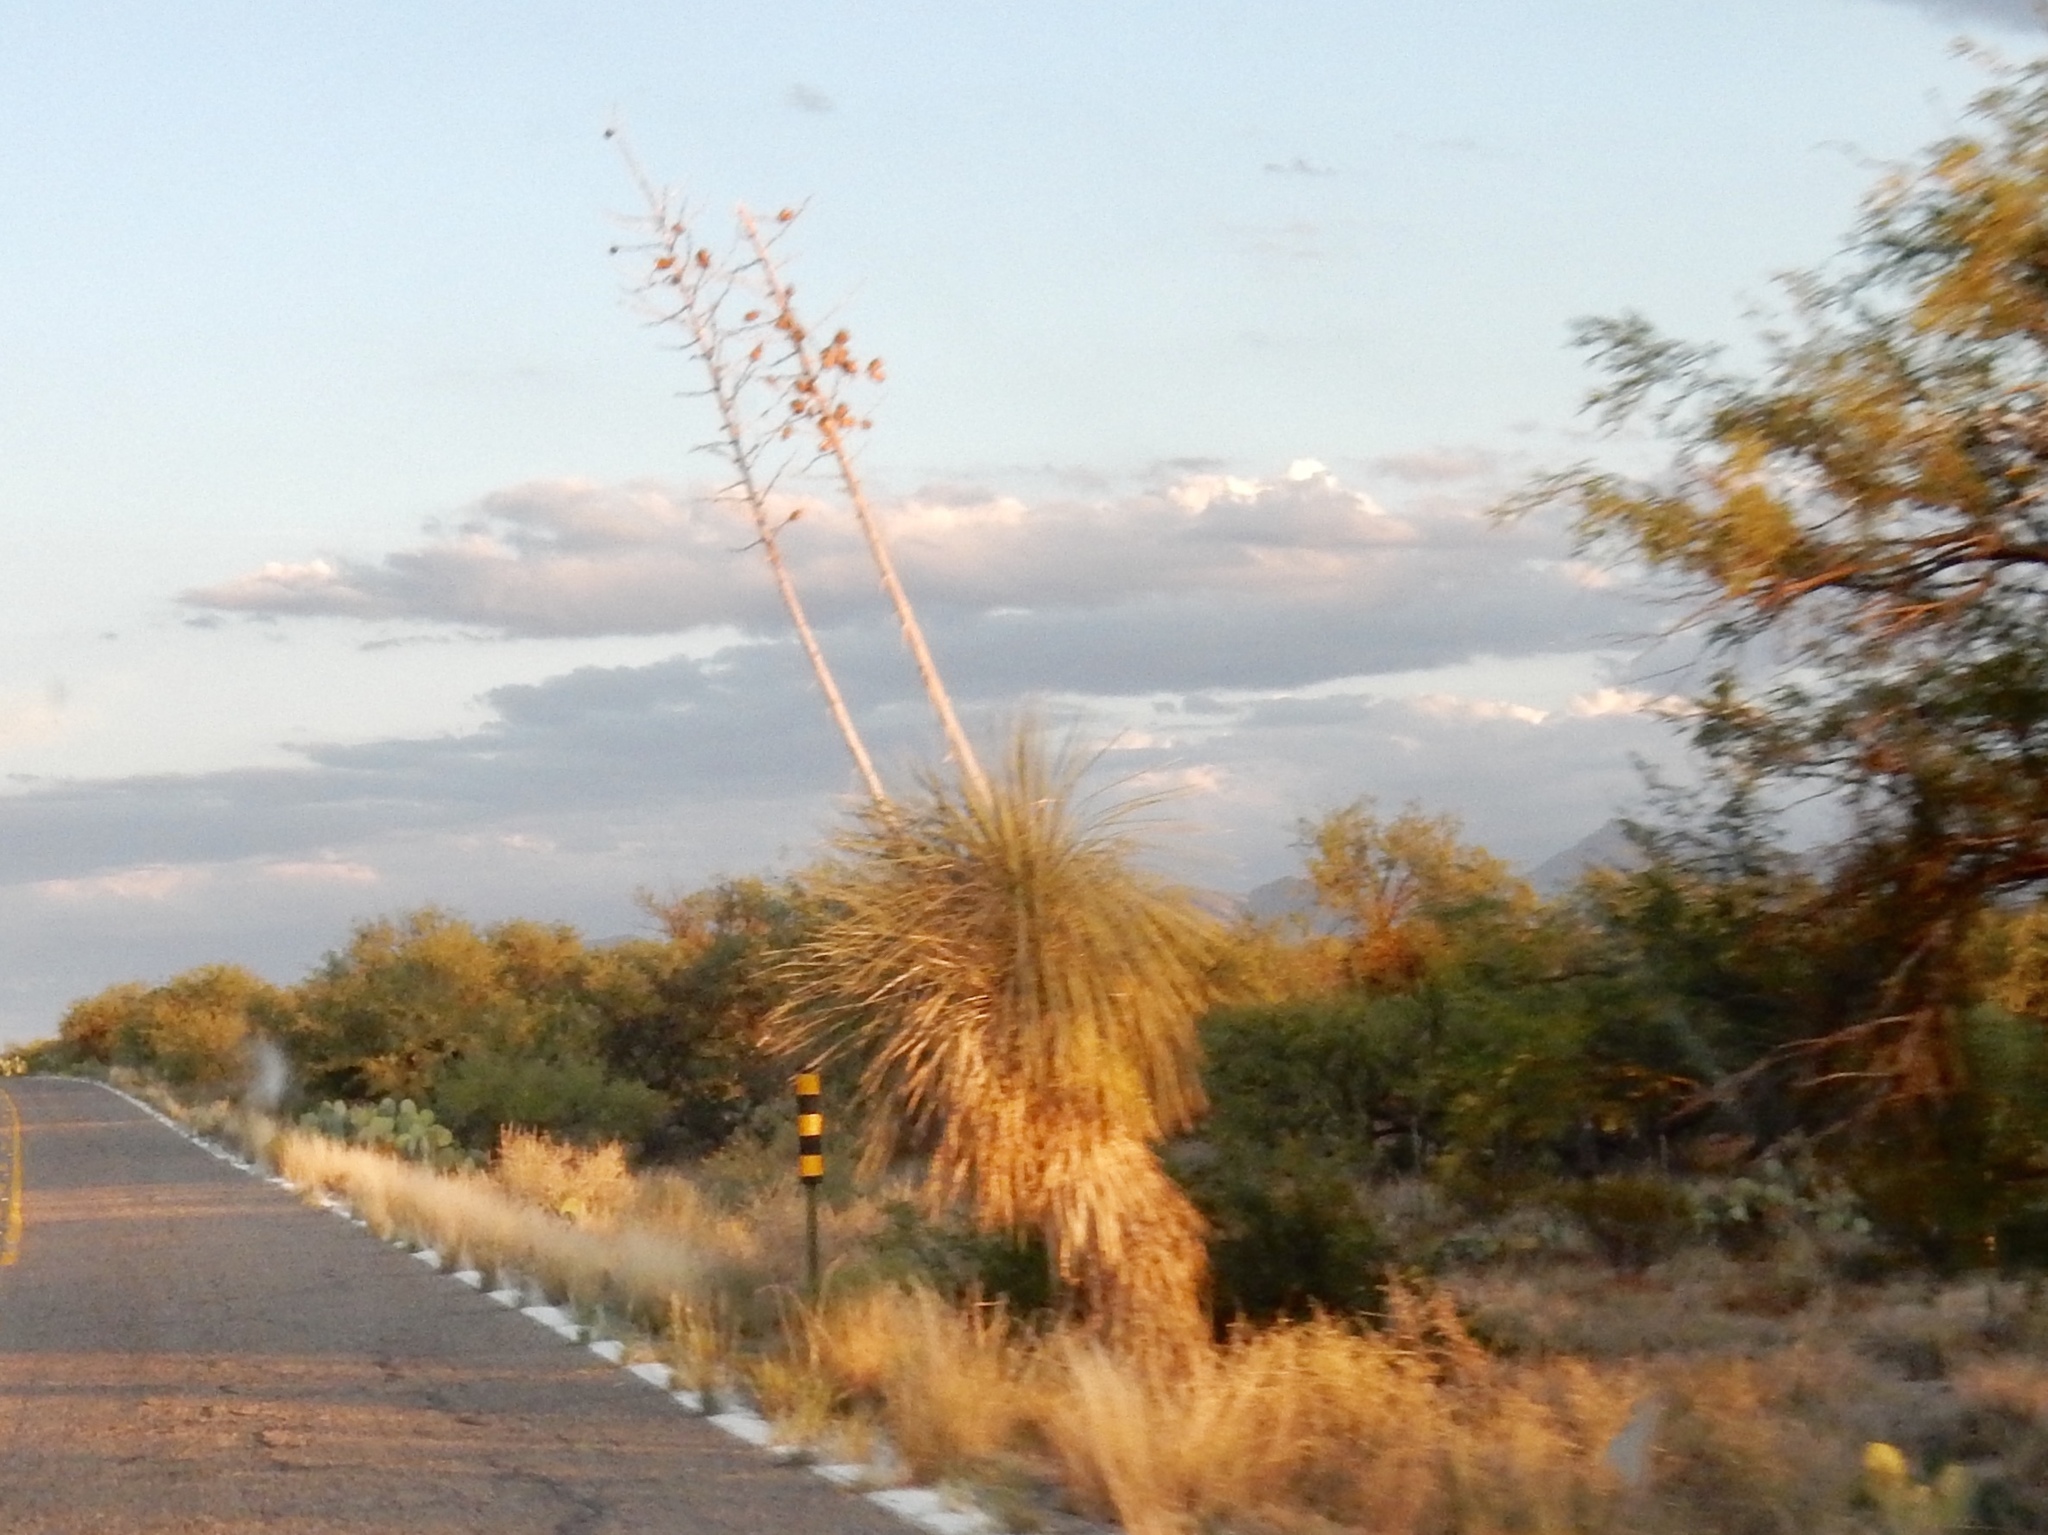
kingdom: Plantae
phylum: Tracheophyta
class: Liliopsida
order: Asparagales
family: Asparagaceae
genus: Yucca
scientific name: Yucca elata
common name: Palmella
